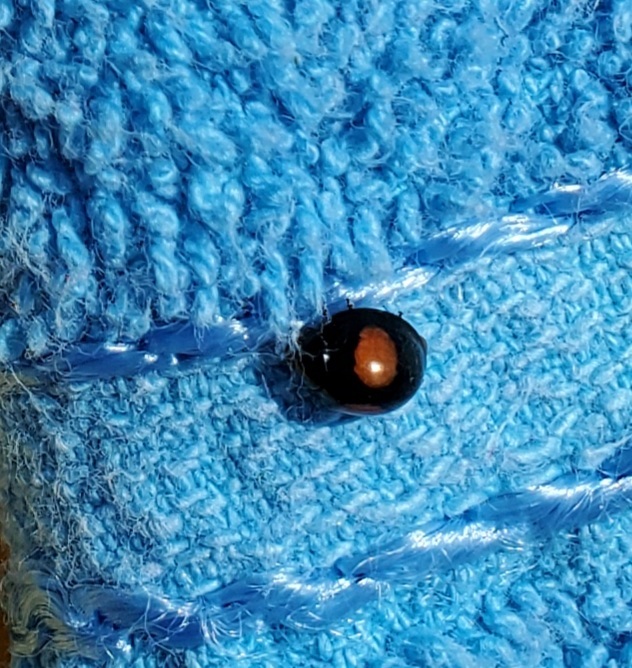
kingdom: Animalia
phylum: Arthropoda
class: Insecta
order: Coleoptera
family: Coccinellidae
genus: Chilocorus
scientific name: Chilocorus cacti
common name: Cactus lady beetle
